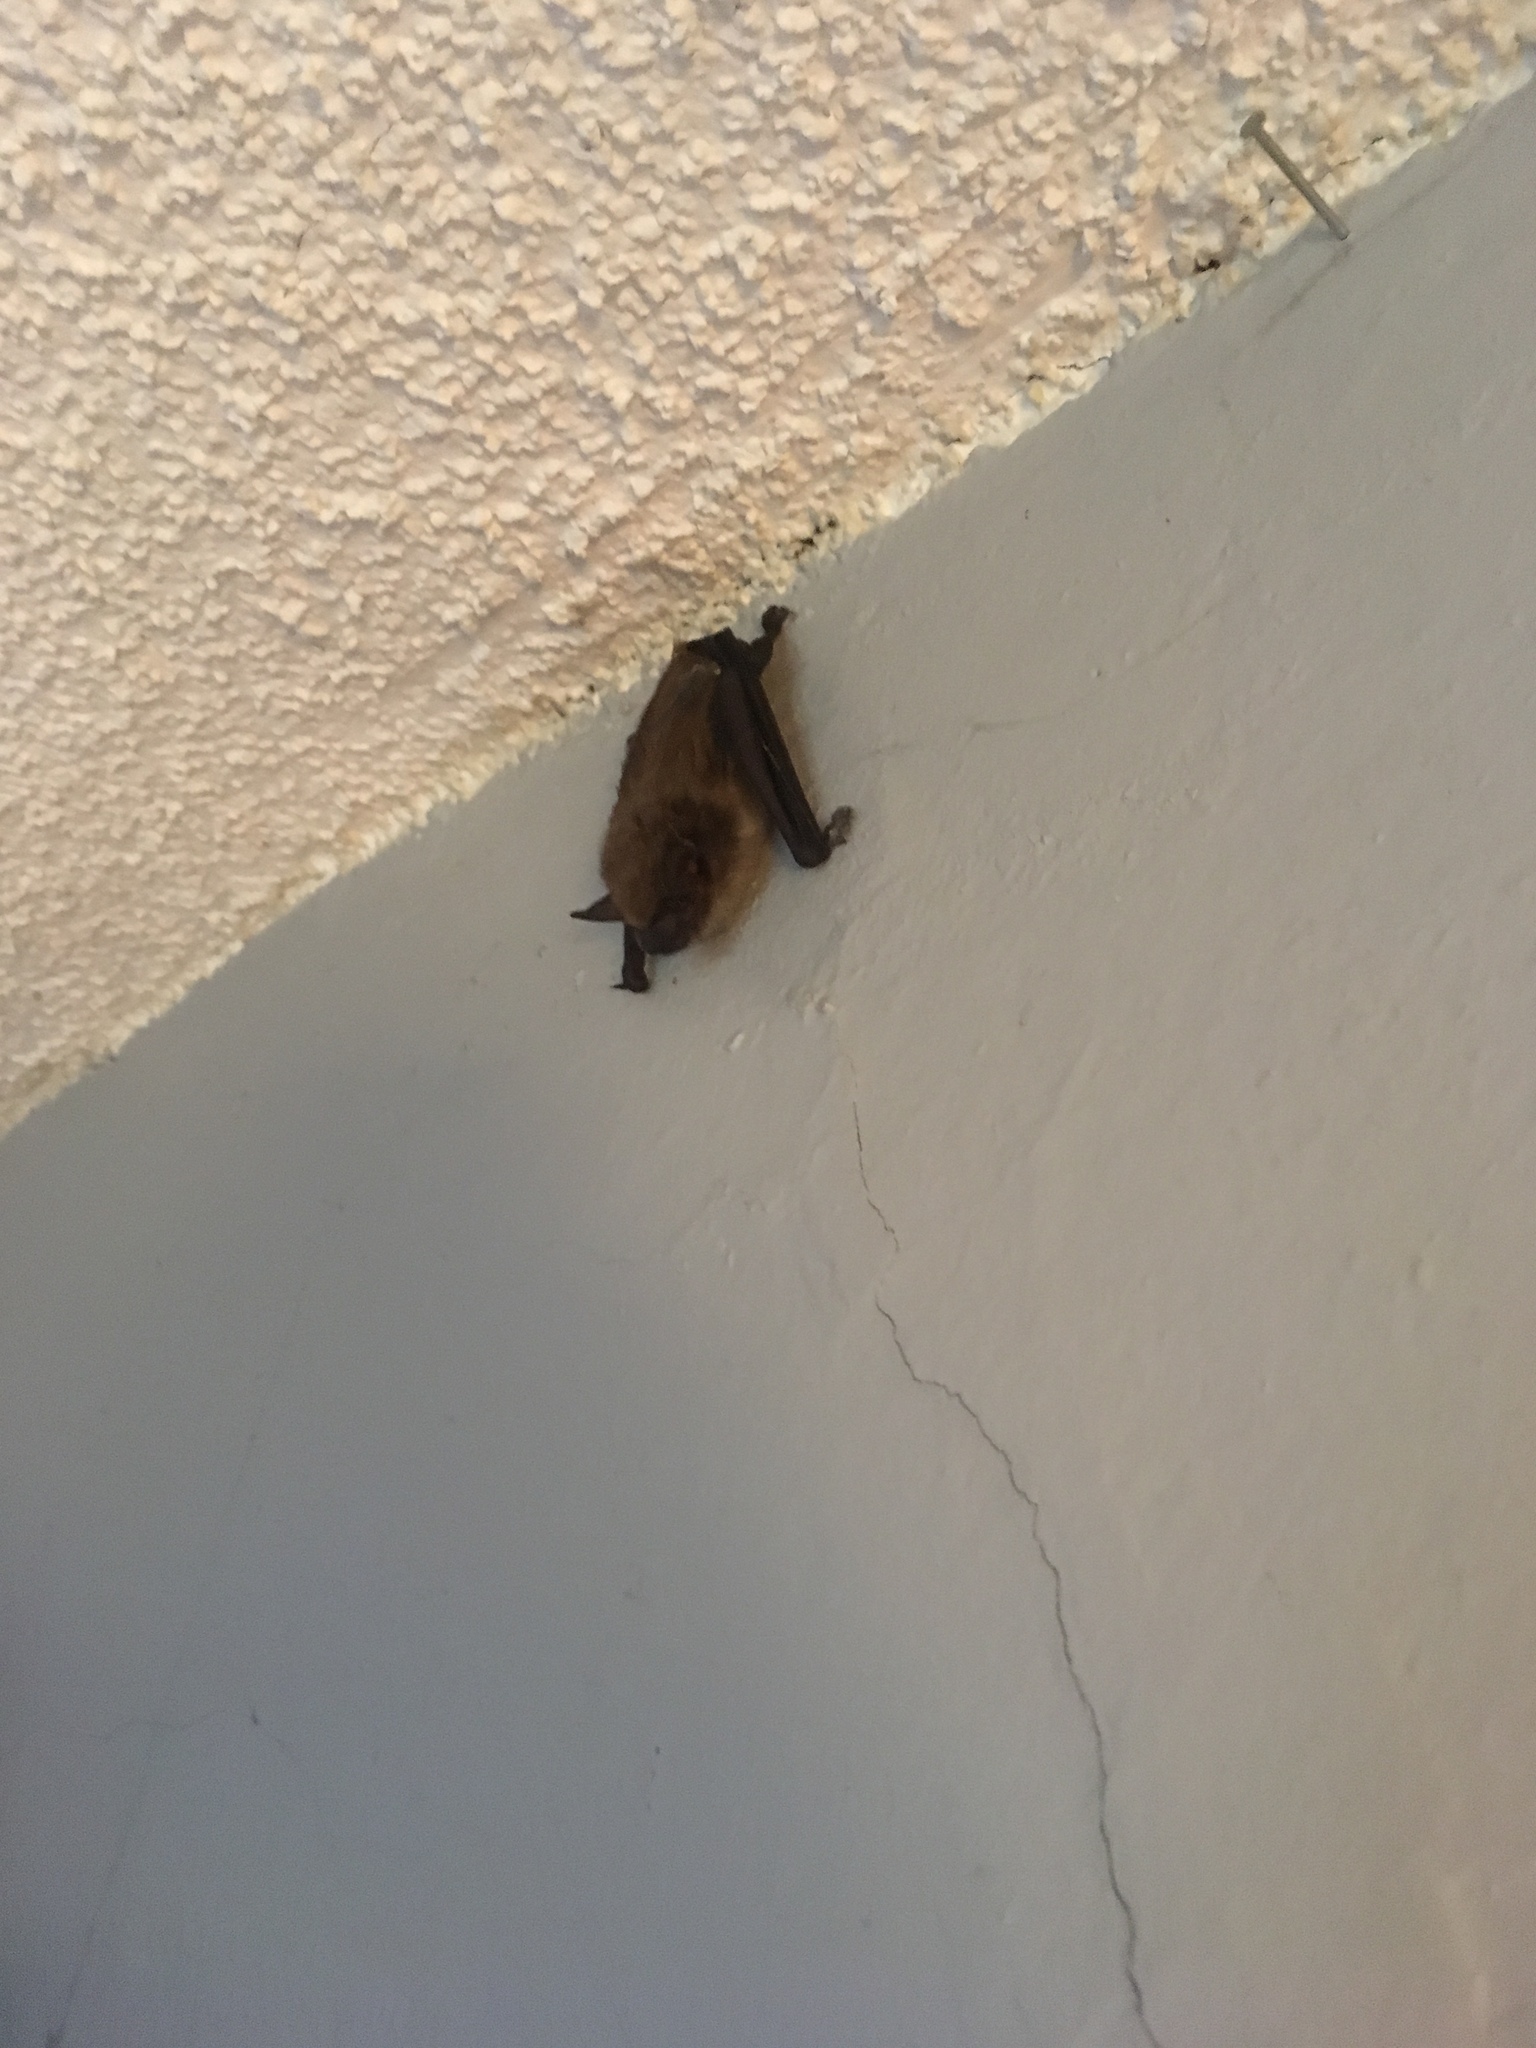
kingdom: Animalia
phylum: Chordata
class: Mammalia
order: Chiroptera
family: Vespertilionidae
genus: Eptesicus
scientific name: Eptesicus fuscus
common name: Big brown bat
